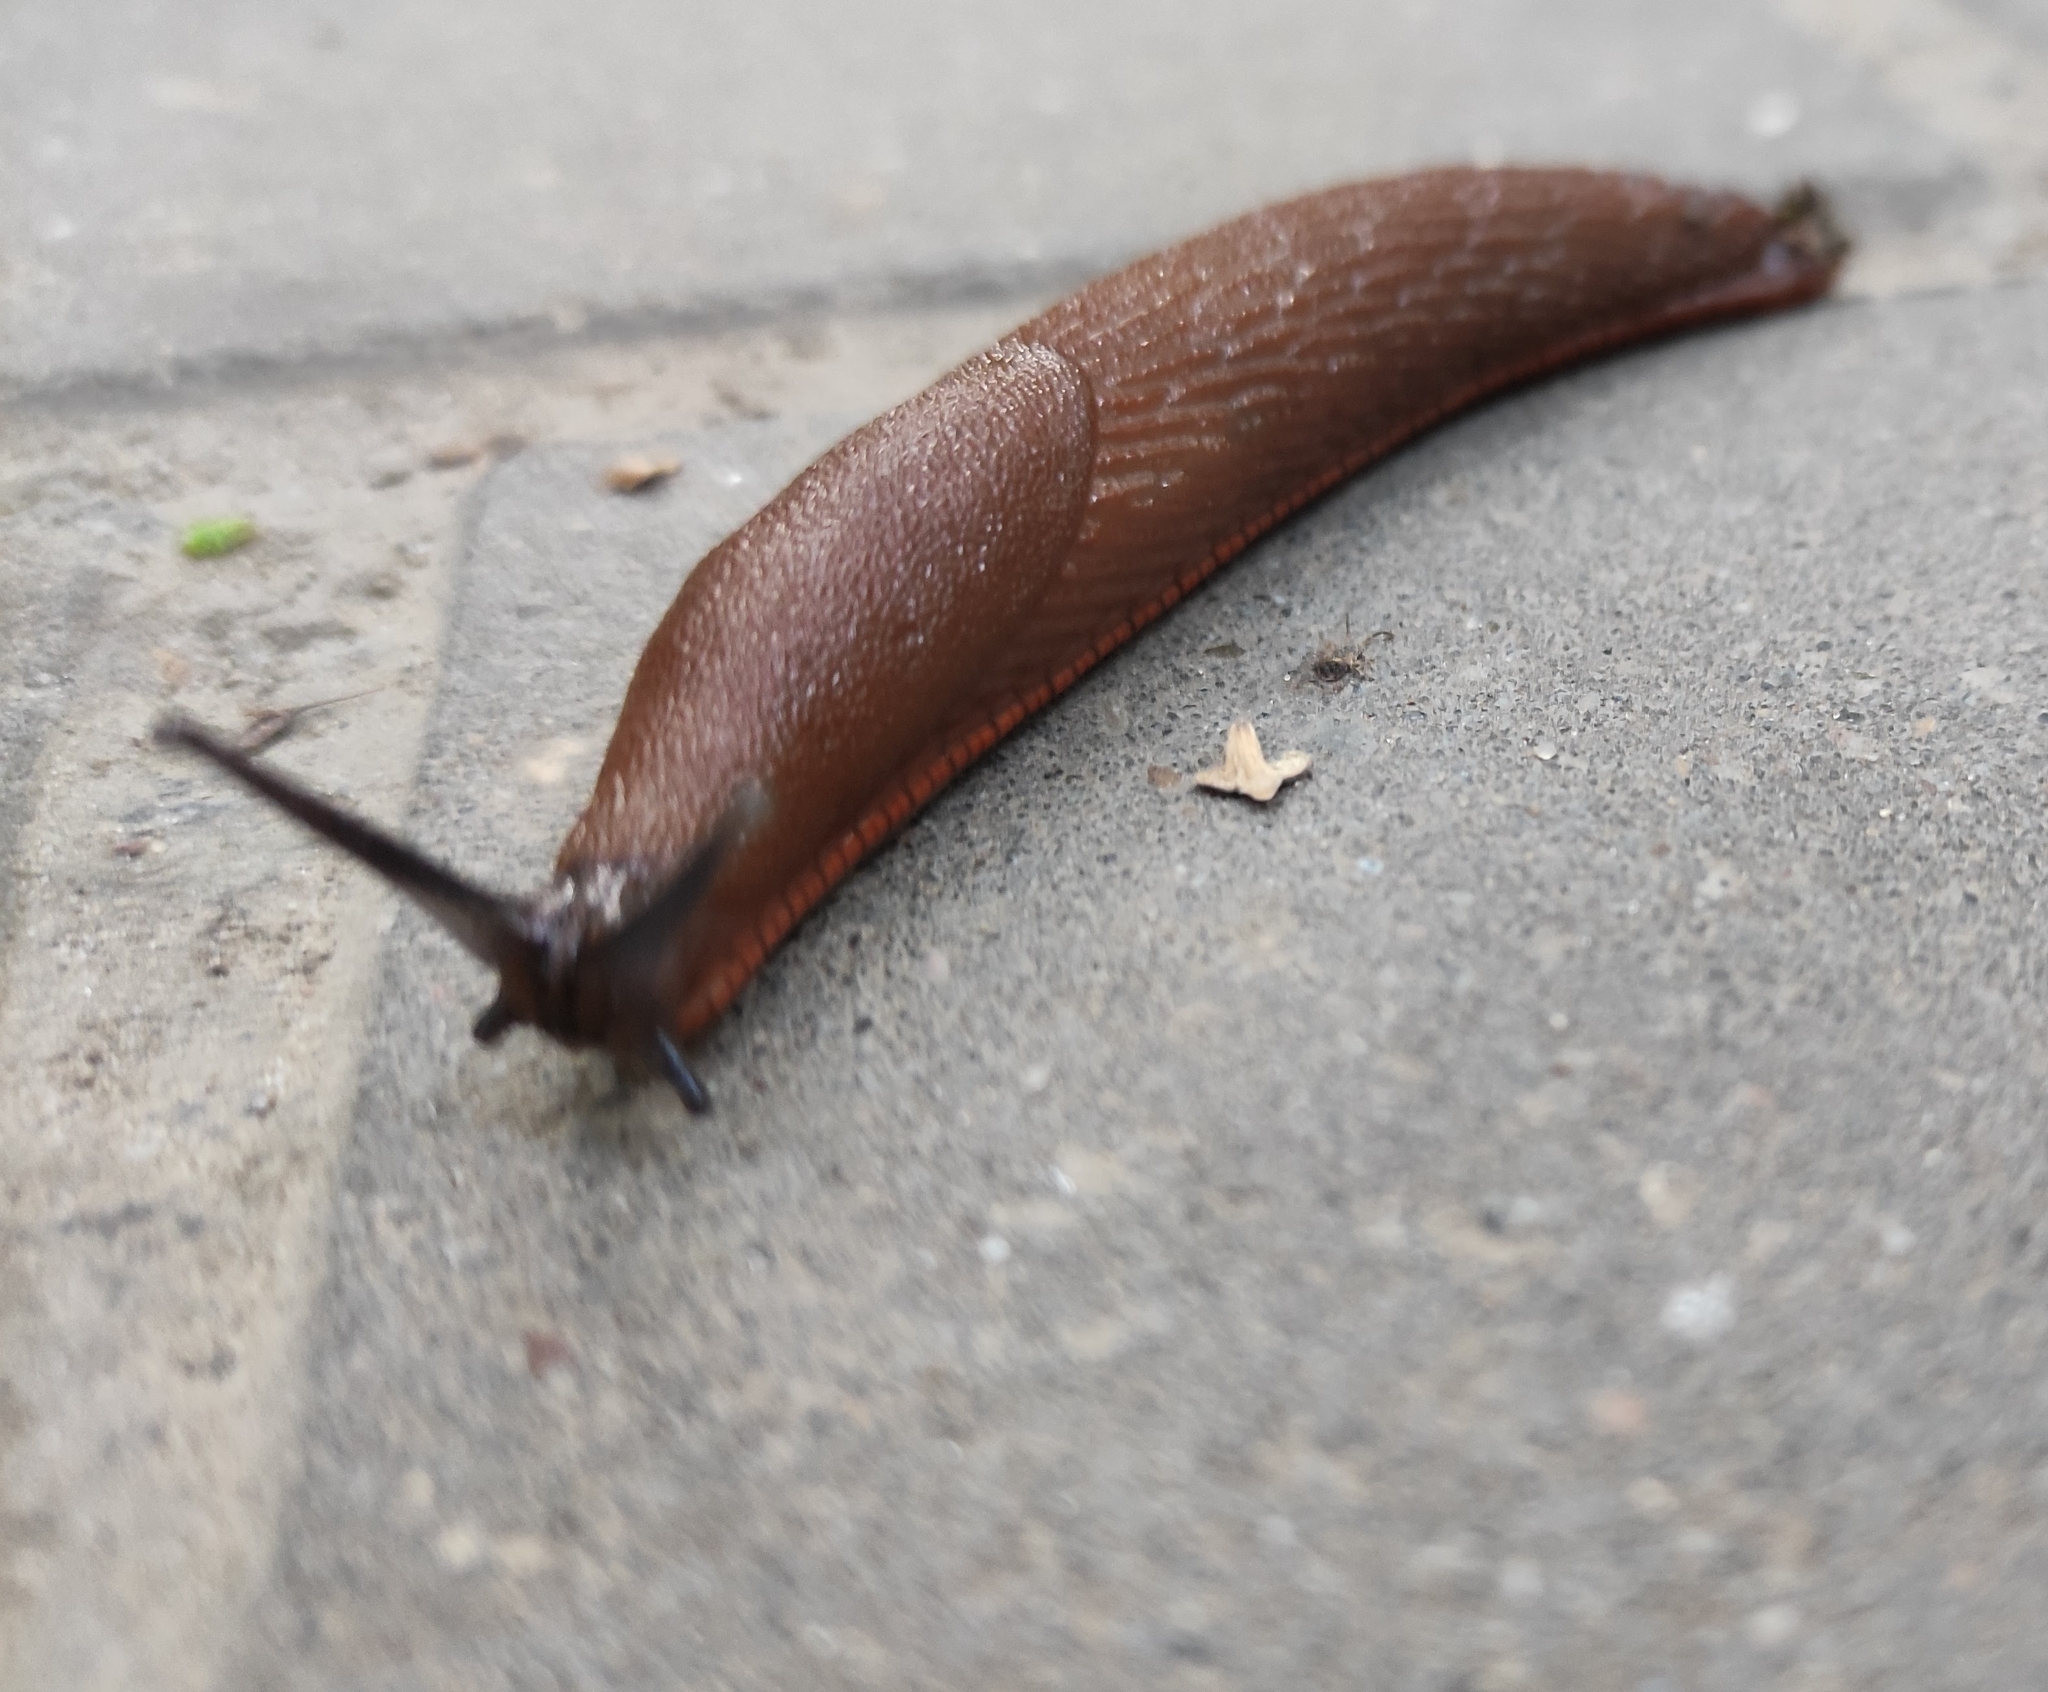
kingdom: Animalia
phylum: Mollusca
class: Gastropoda
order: Stylommatophora
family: Arionidae
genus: Arion
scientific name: Arion
